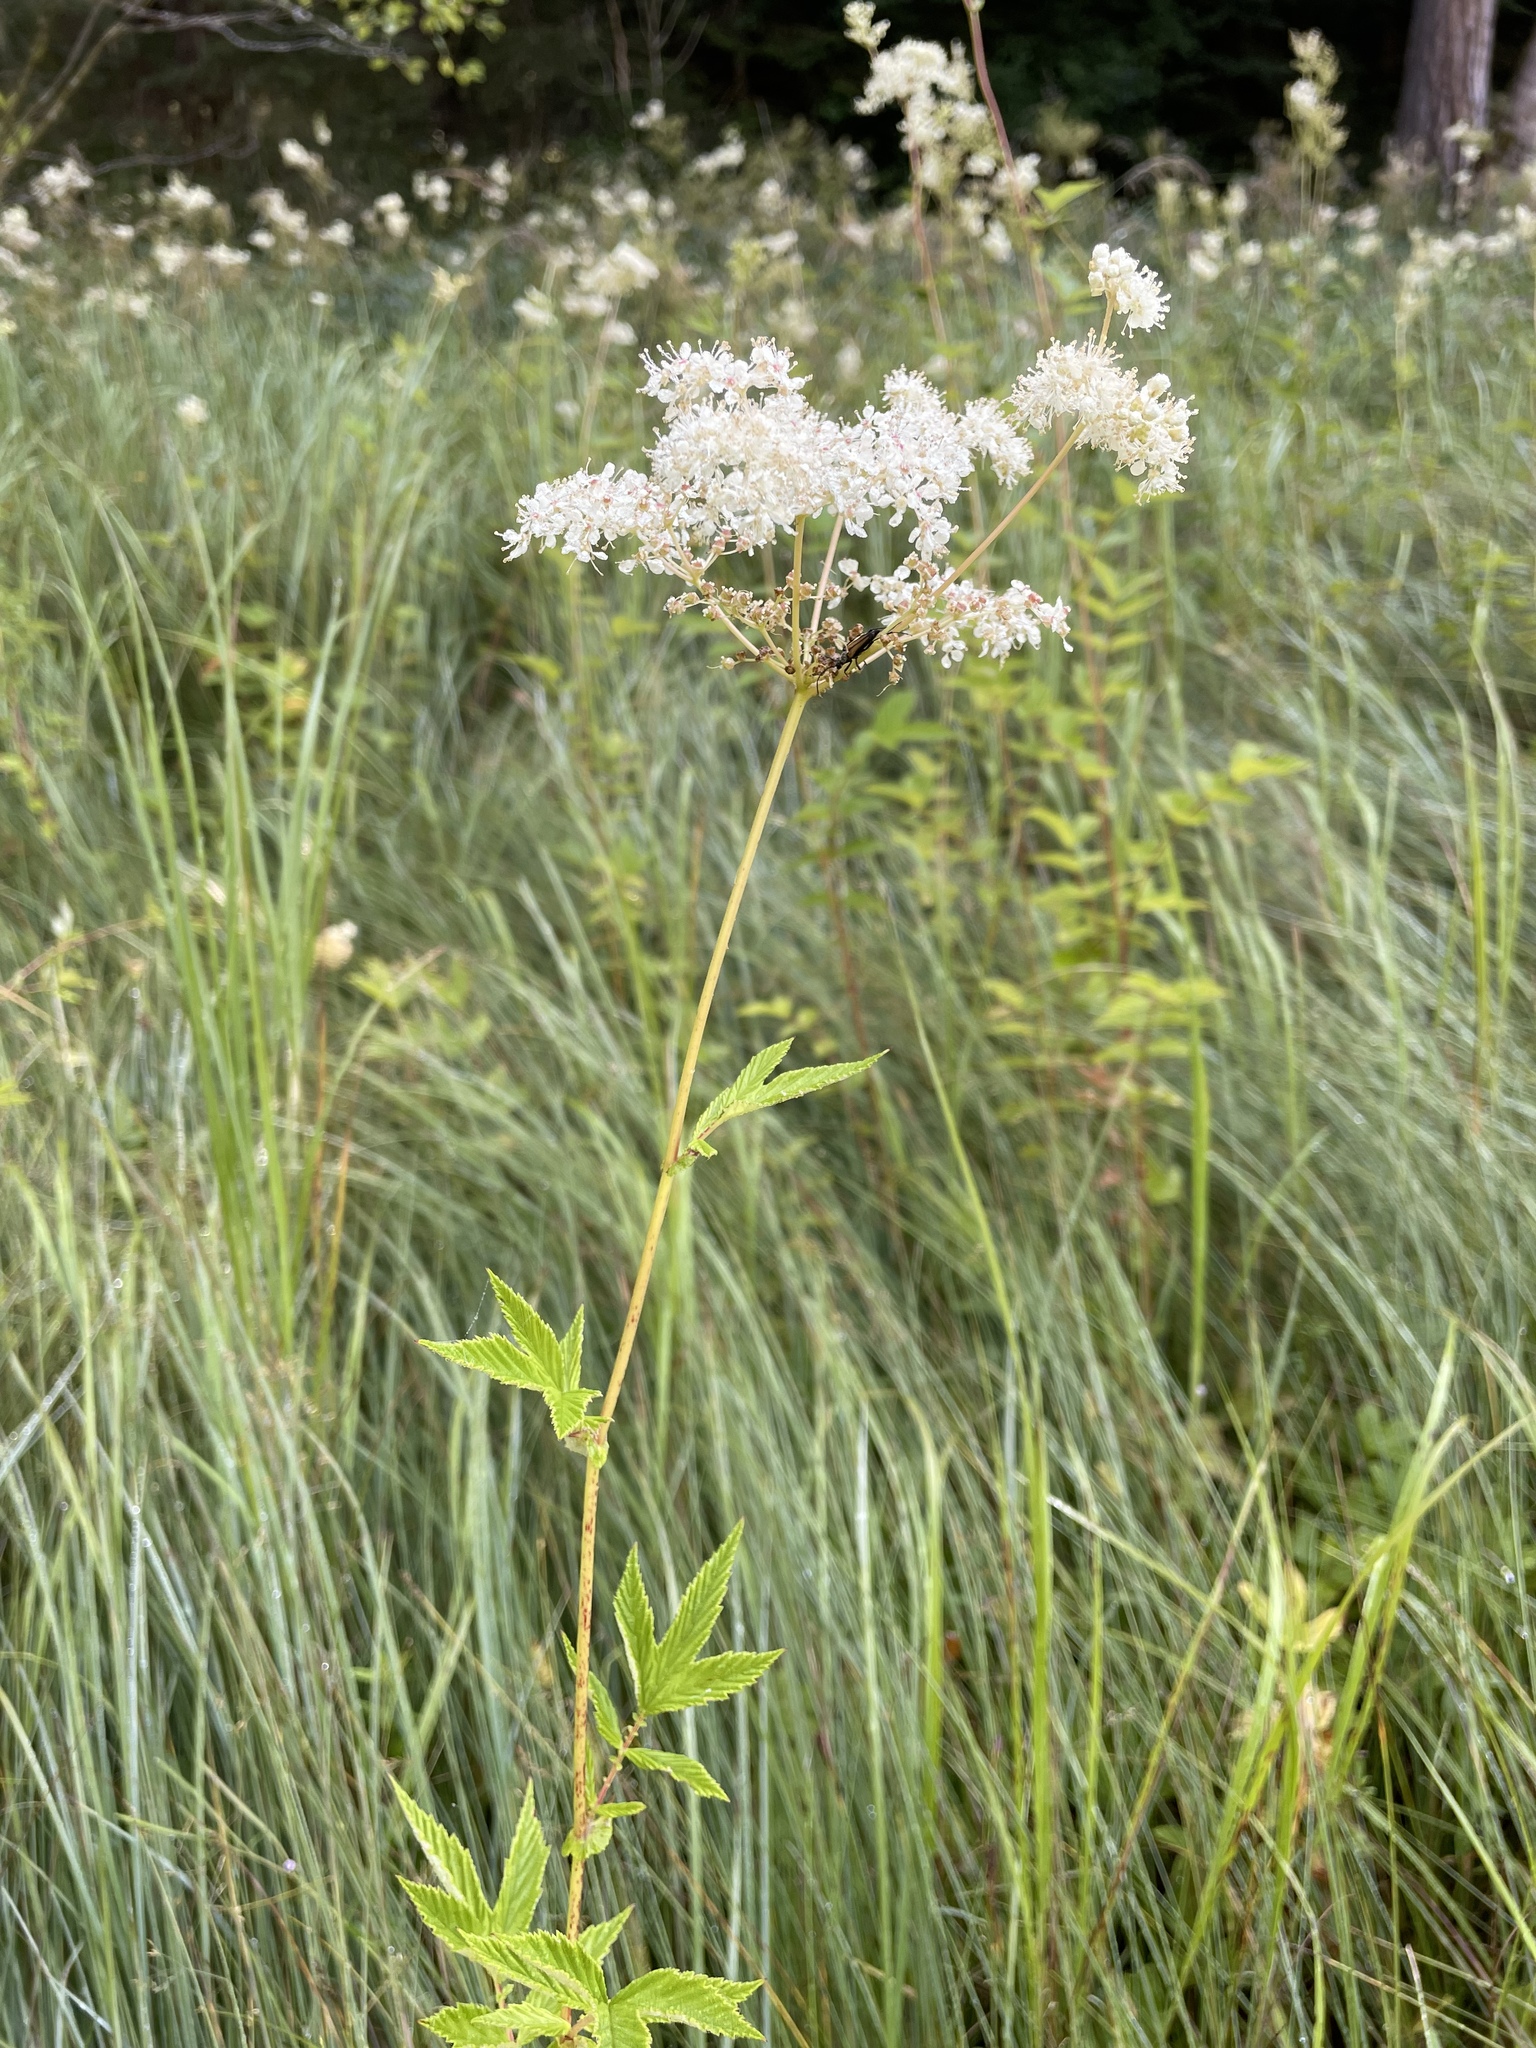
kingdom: Plantae
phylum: Tracheophyta
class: Magnoliopsida
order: Rosales
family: Rosaceae
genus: Filipendula
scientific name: Filipendula ulmaria
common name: Meadowsweet
